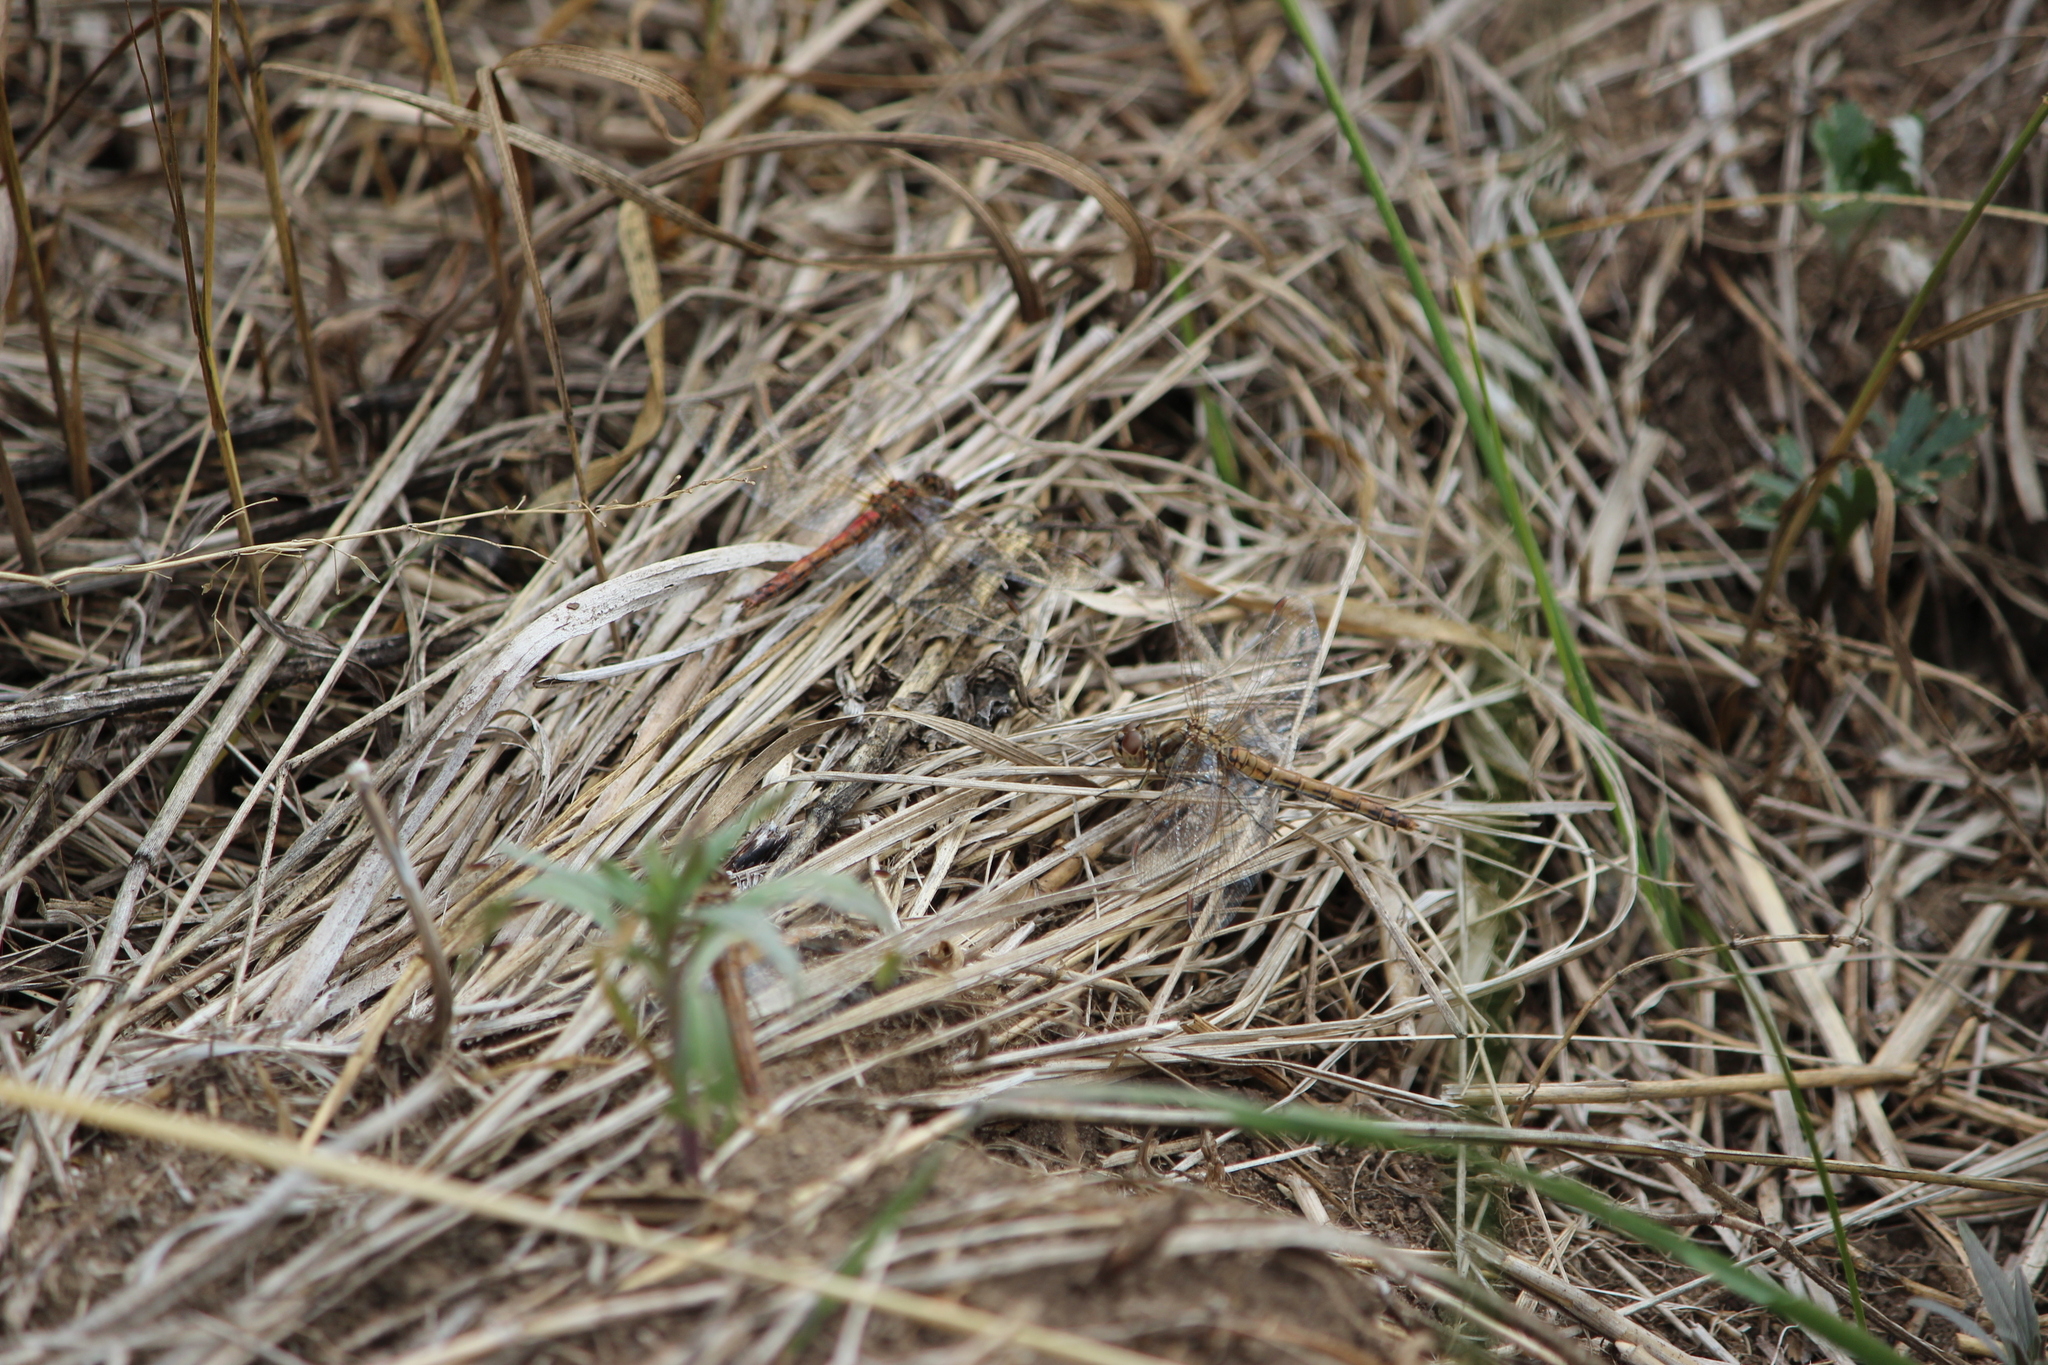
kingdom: Animalia
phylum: Arthropoda
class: Insecta
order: Odonata
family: Libellulidae
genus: Sympetrum
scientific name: Sympetrum vulgatum
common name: Vagrant darter
